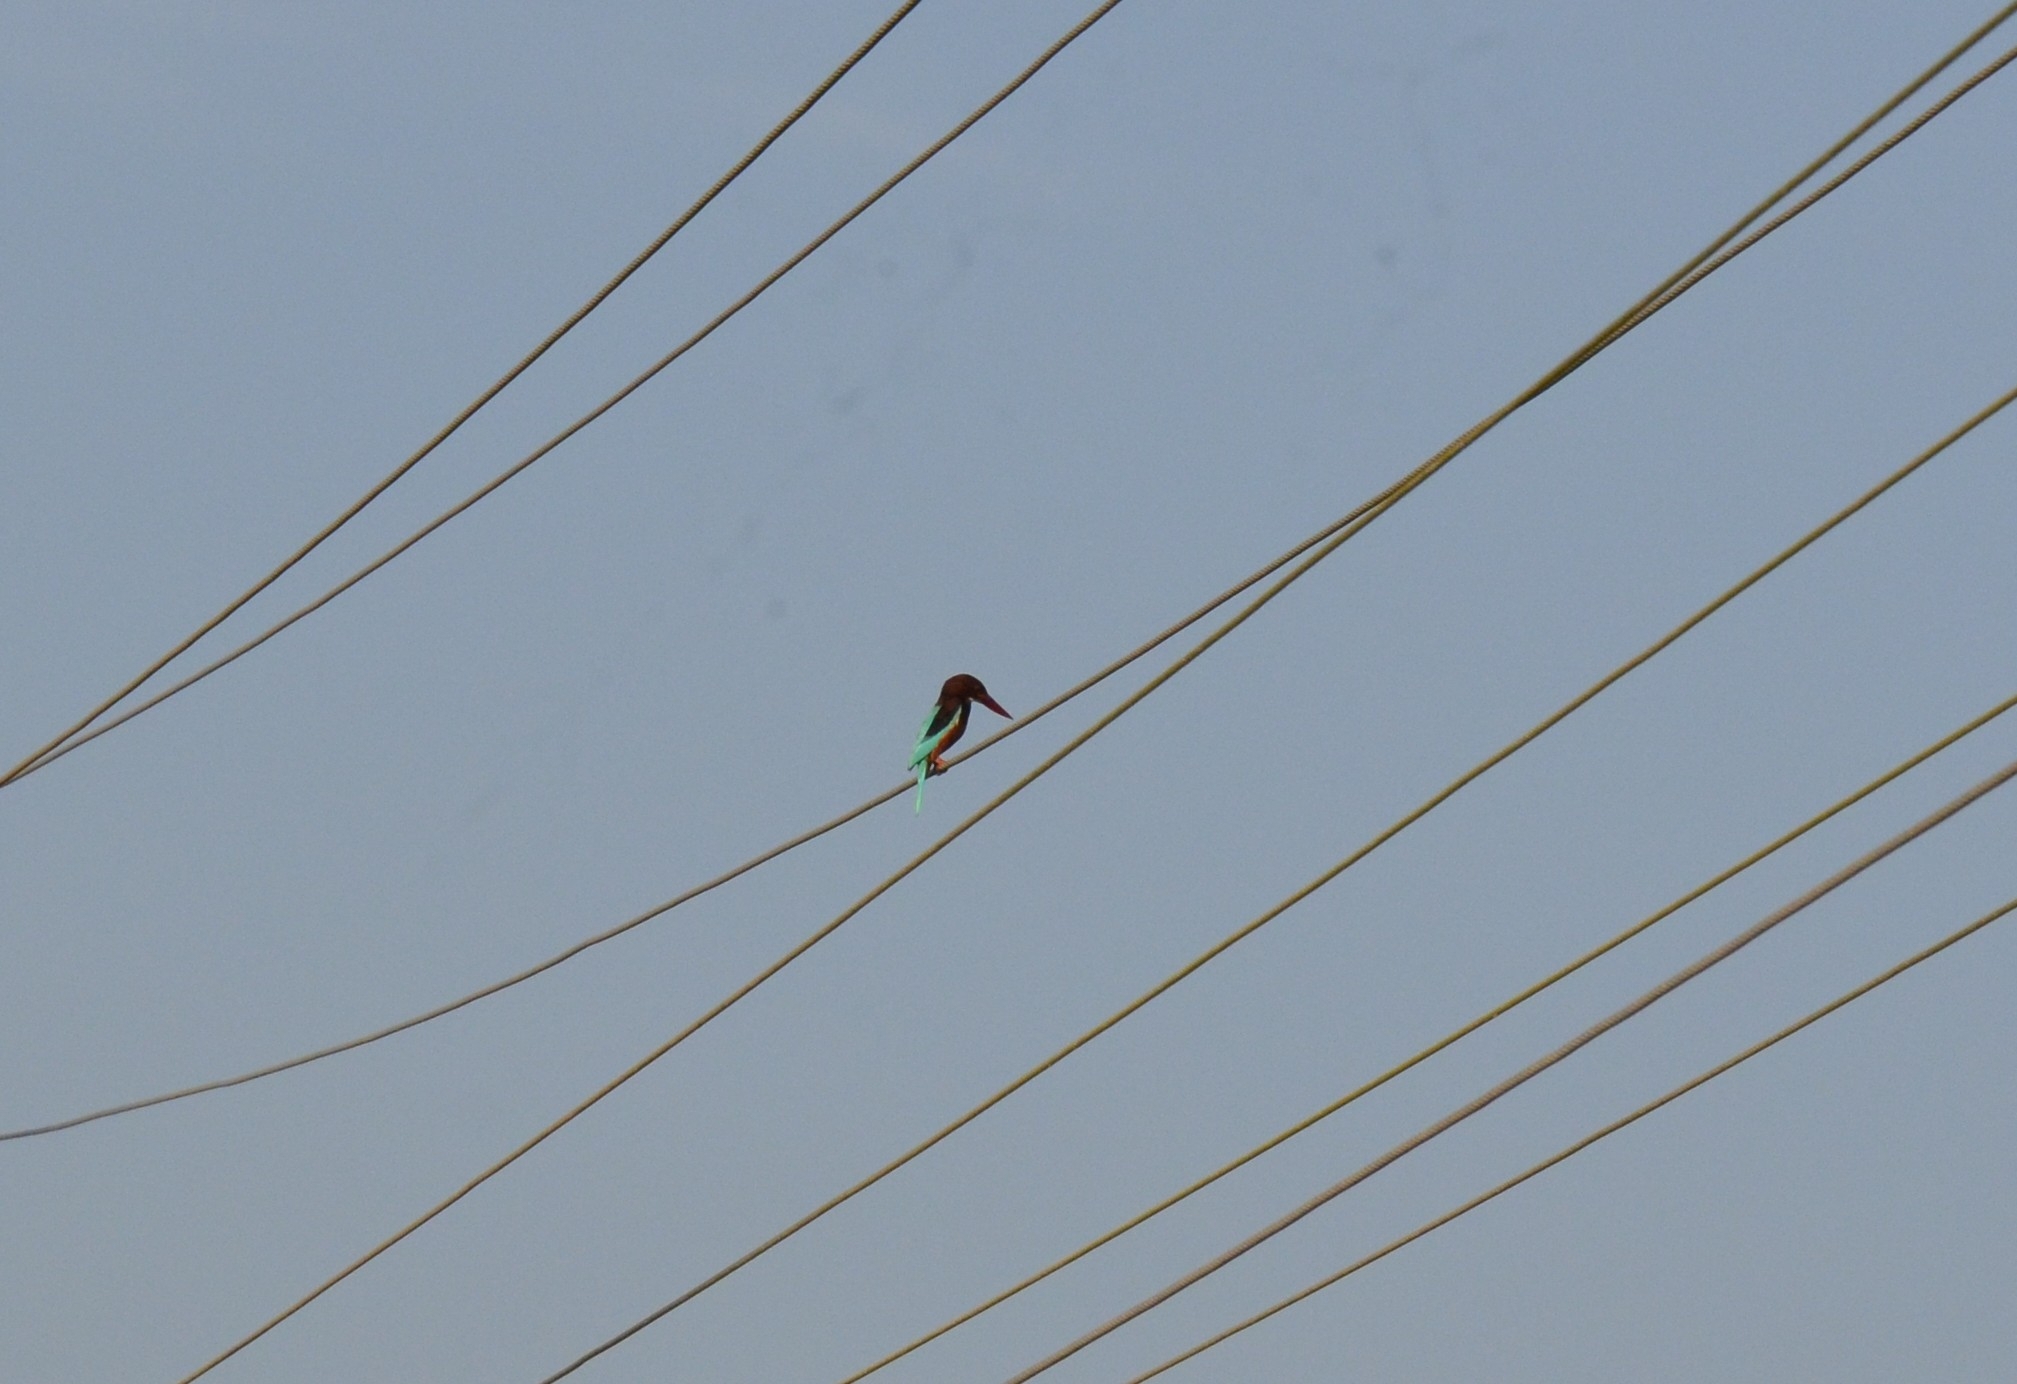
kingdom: Animalia
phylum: Chordata
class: Aves
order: Coraciiformes
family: Alcedinidae
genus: Halcyon
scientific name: Halcyon smyrnensis
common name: White-throated kingfisher
